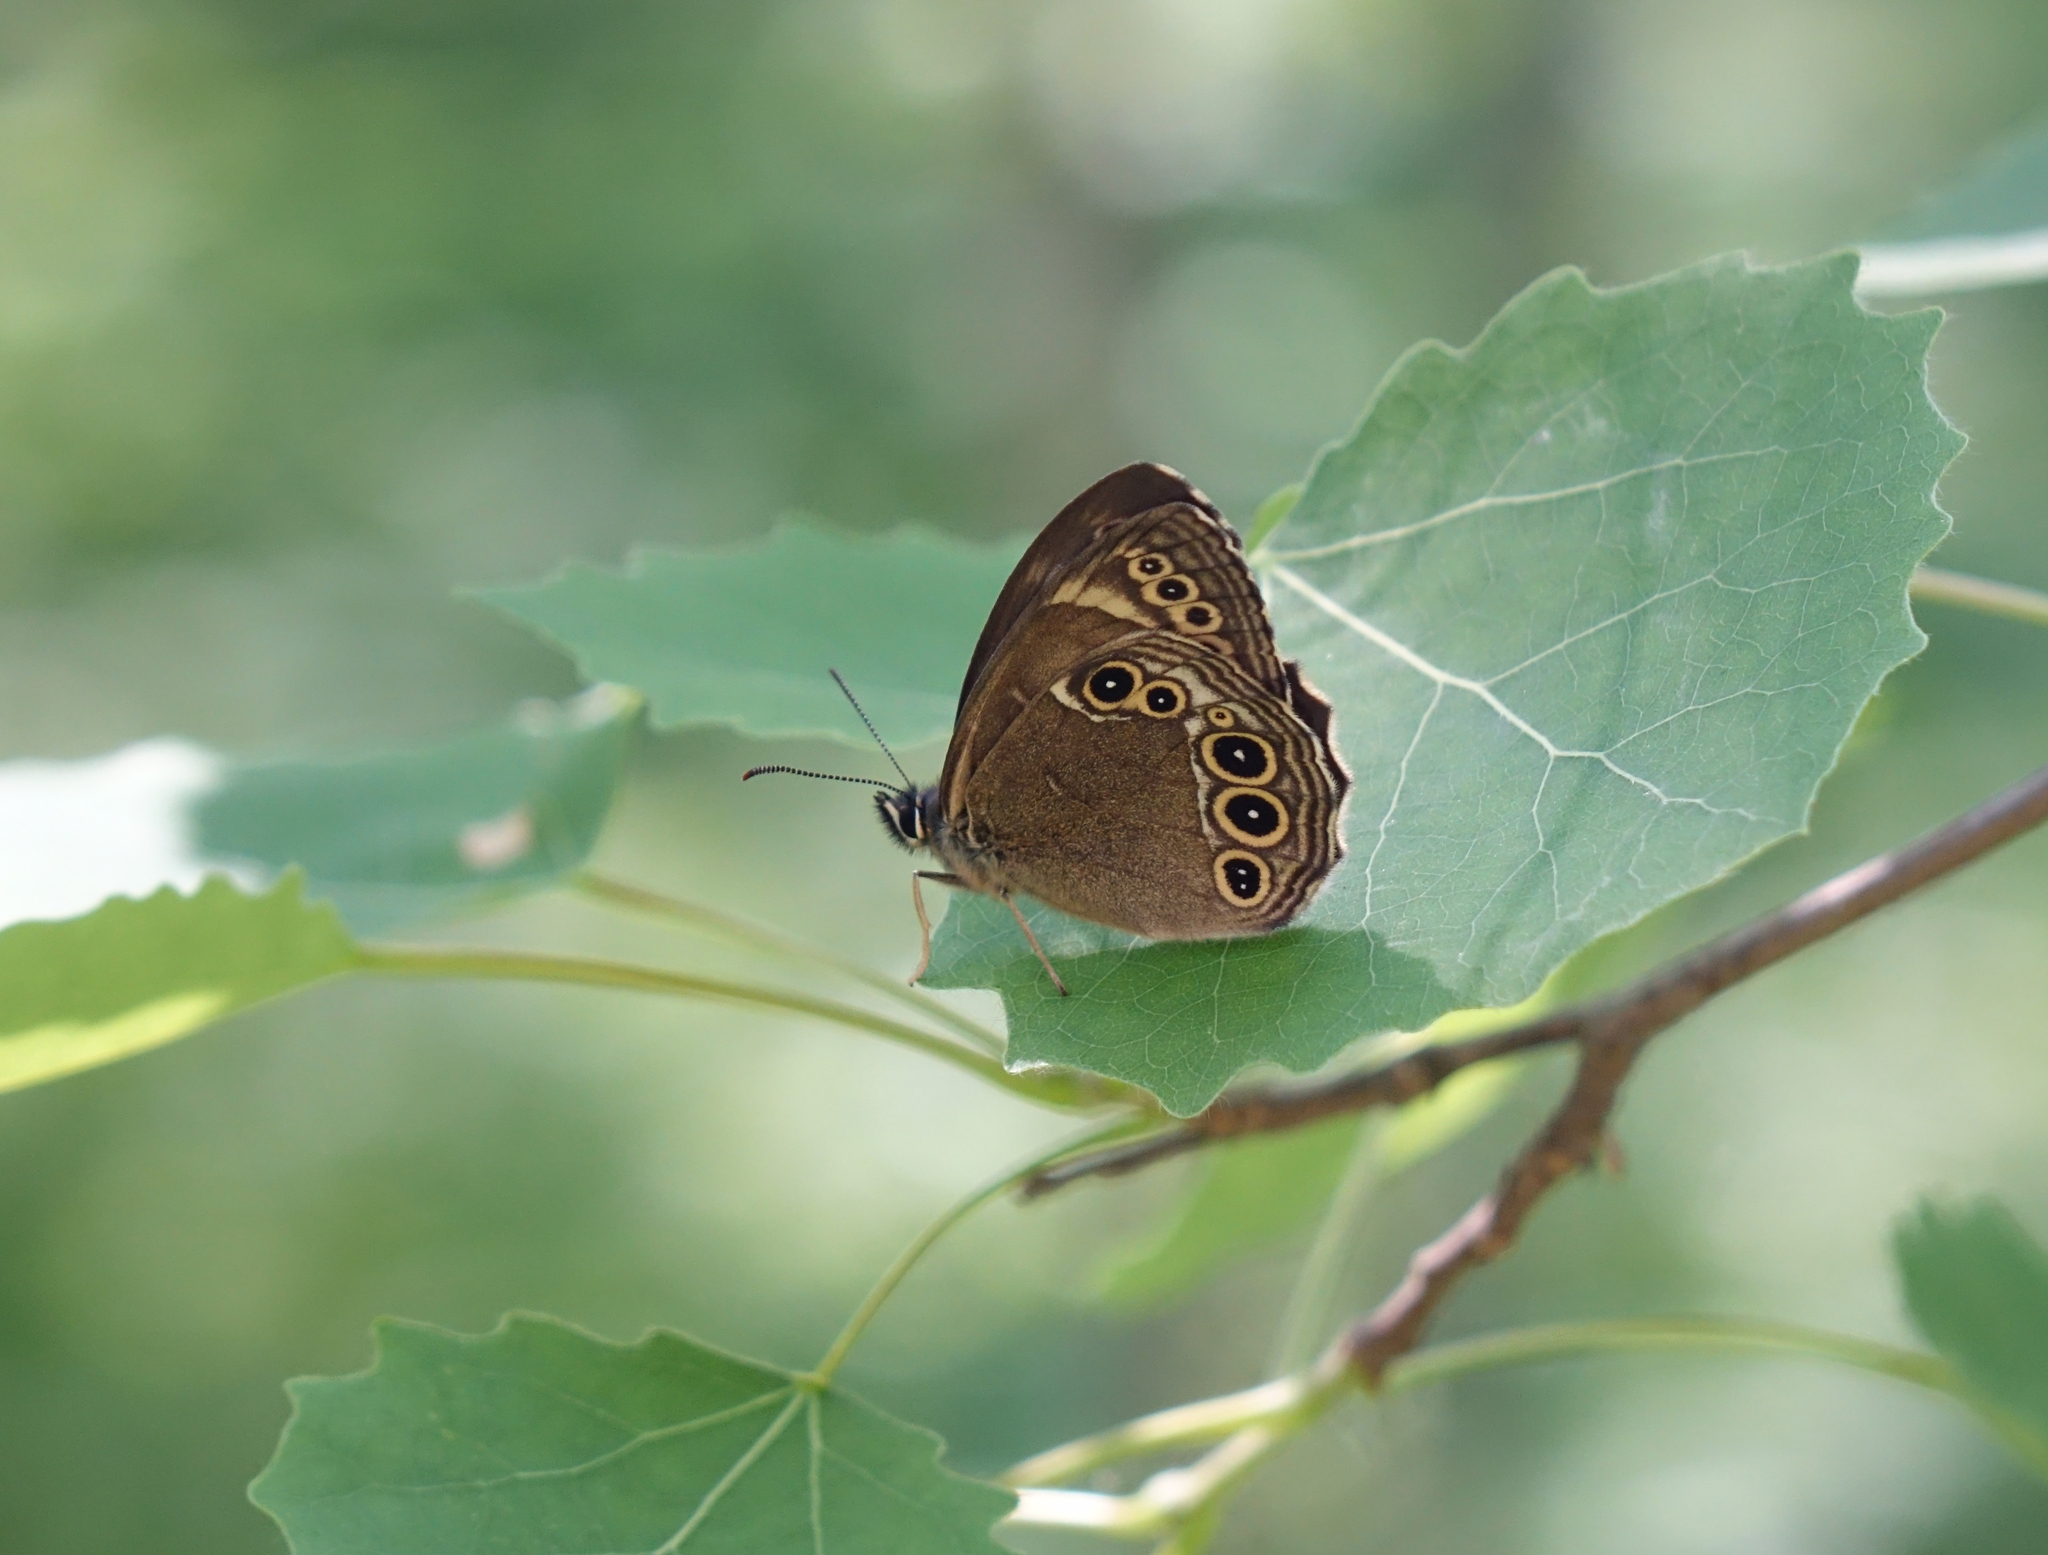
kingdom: Plantae
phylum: Tracheophyta
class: Magnoliopsida
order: Malpighiales
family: Salicaceae
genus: Populus
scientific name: Populus tremula
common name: European aspen
